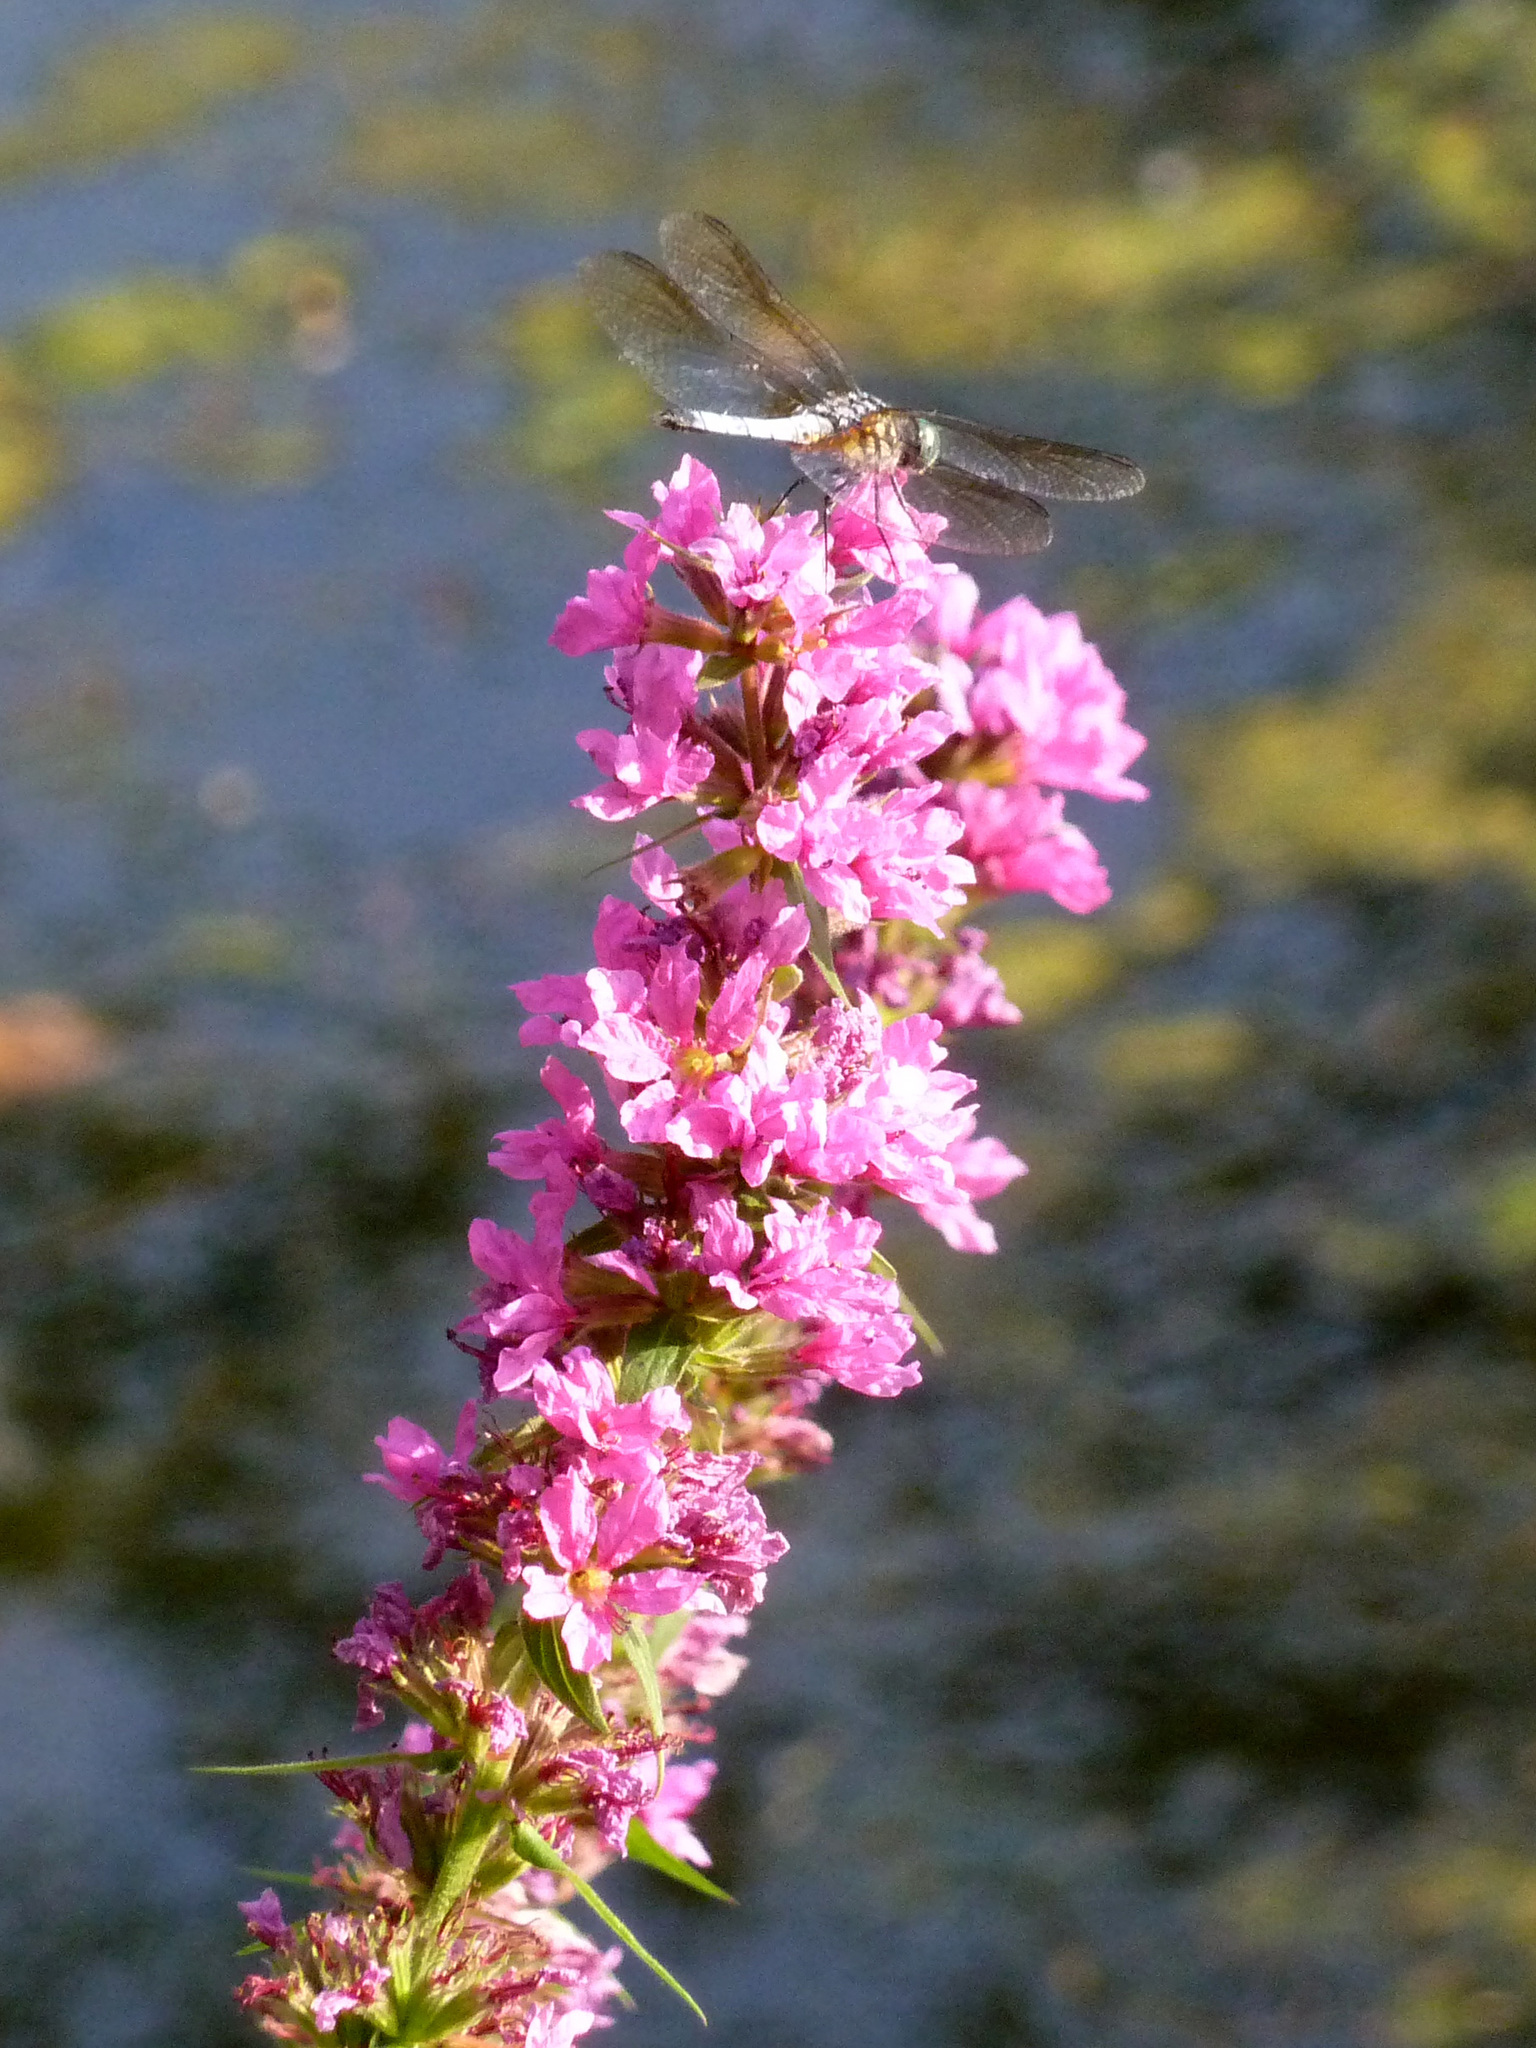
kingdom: Plantae
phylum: Tracheophyta
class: Magnoliopsida
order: Myrtales
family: Lythraceae
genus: Lythrum
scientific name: Lythrum salicaria
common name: Purple loosestrife
